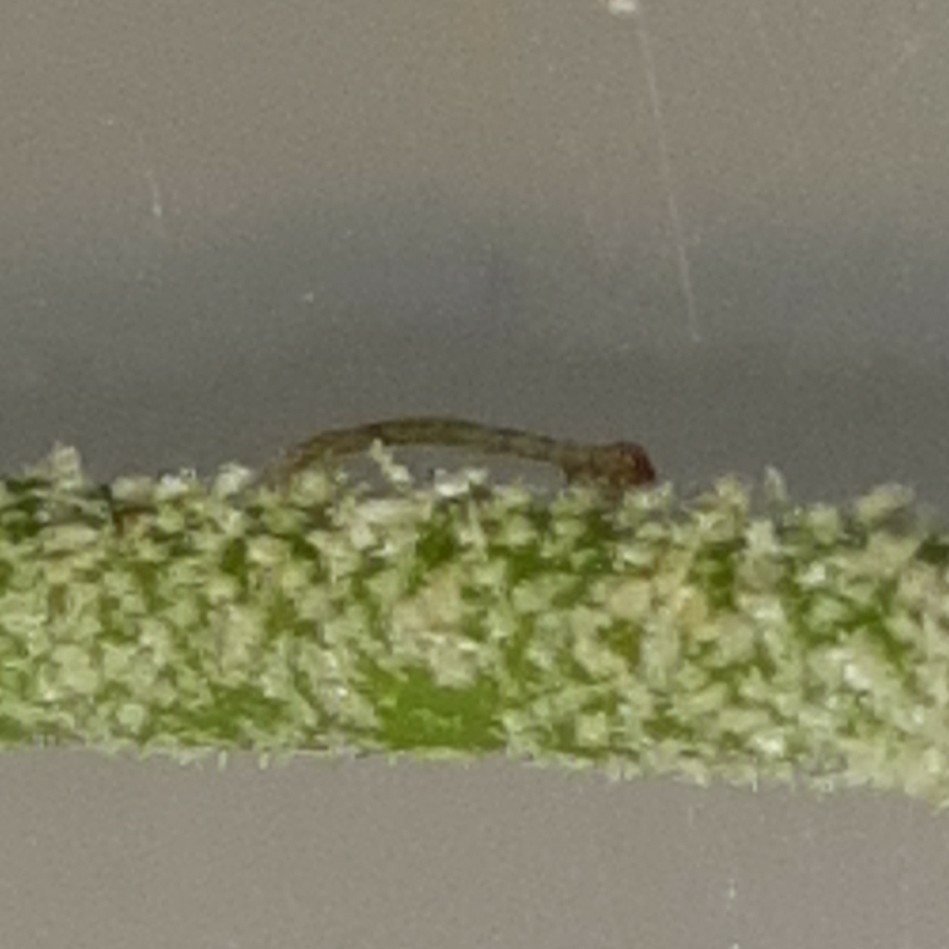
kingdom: Animalia
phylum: Arthropoda
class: Insecta
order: Lepidoptera
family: Geometridae
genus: Brachurapteryx
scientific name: Brachurapteryx tesserata
